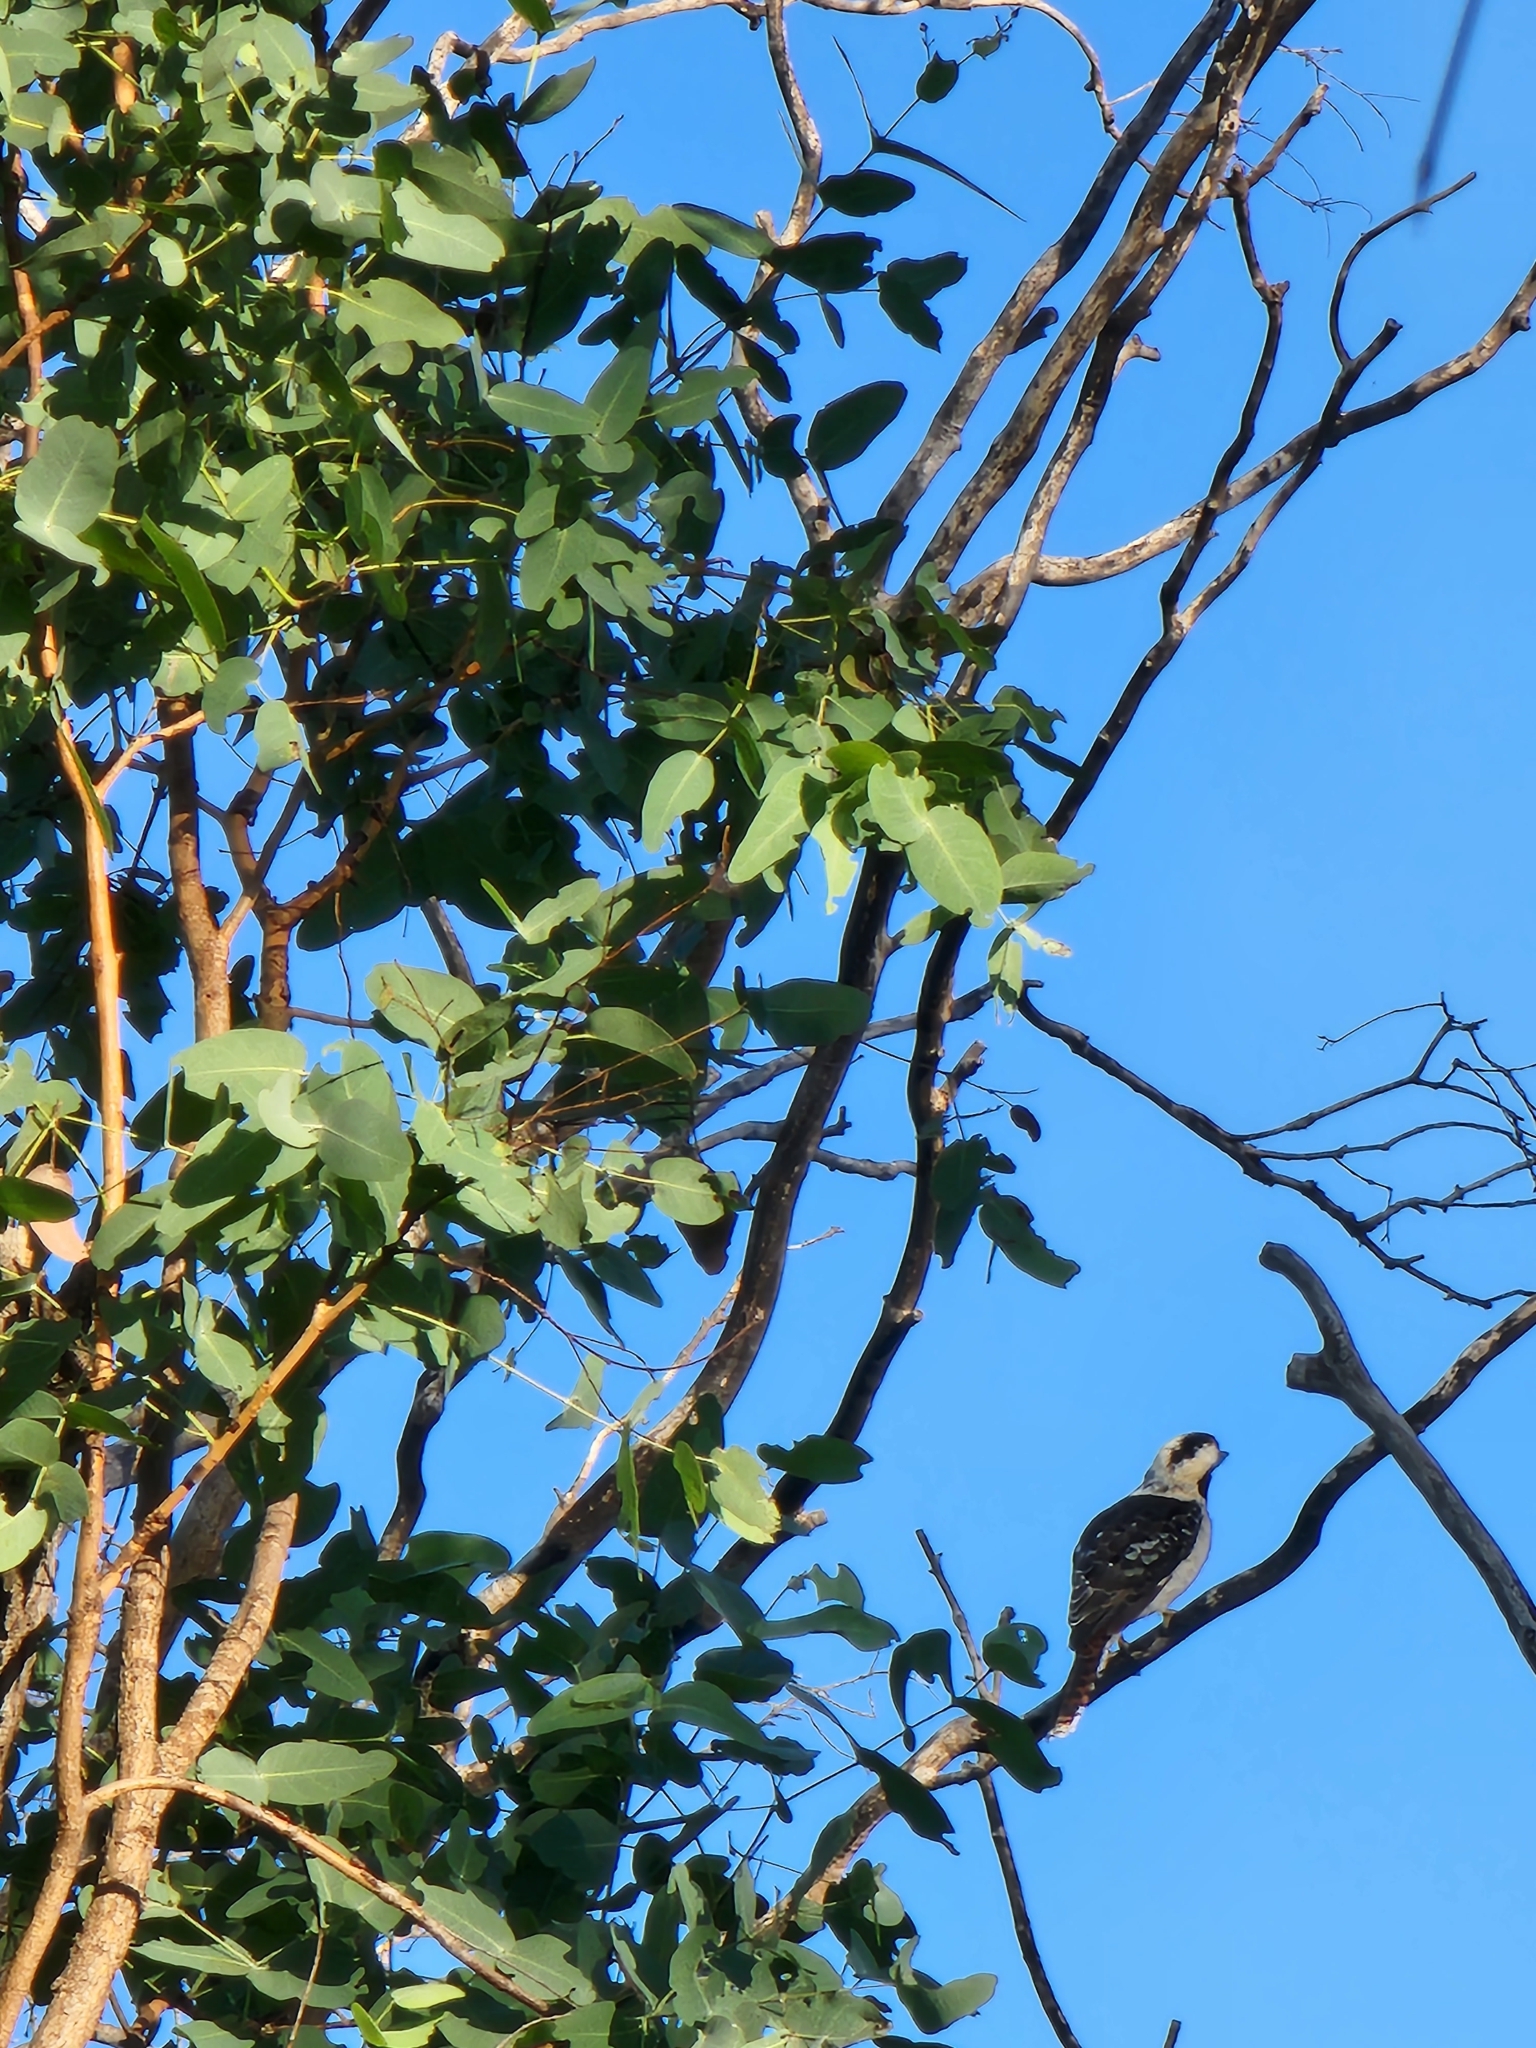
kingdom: Animalia
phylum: Chordata
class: Aves
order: Coraciiformes
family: Alcedinidae
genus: Dacelo
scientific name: Dacelo novaeguineae
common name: Laughing kookaburra
